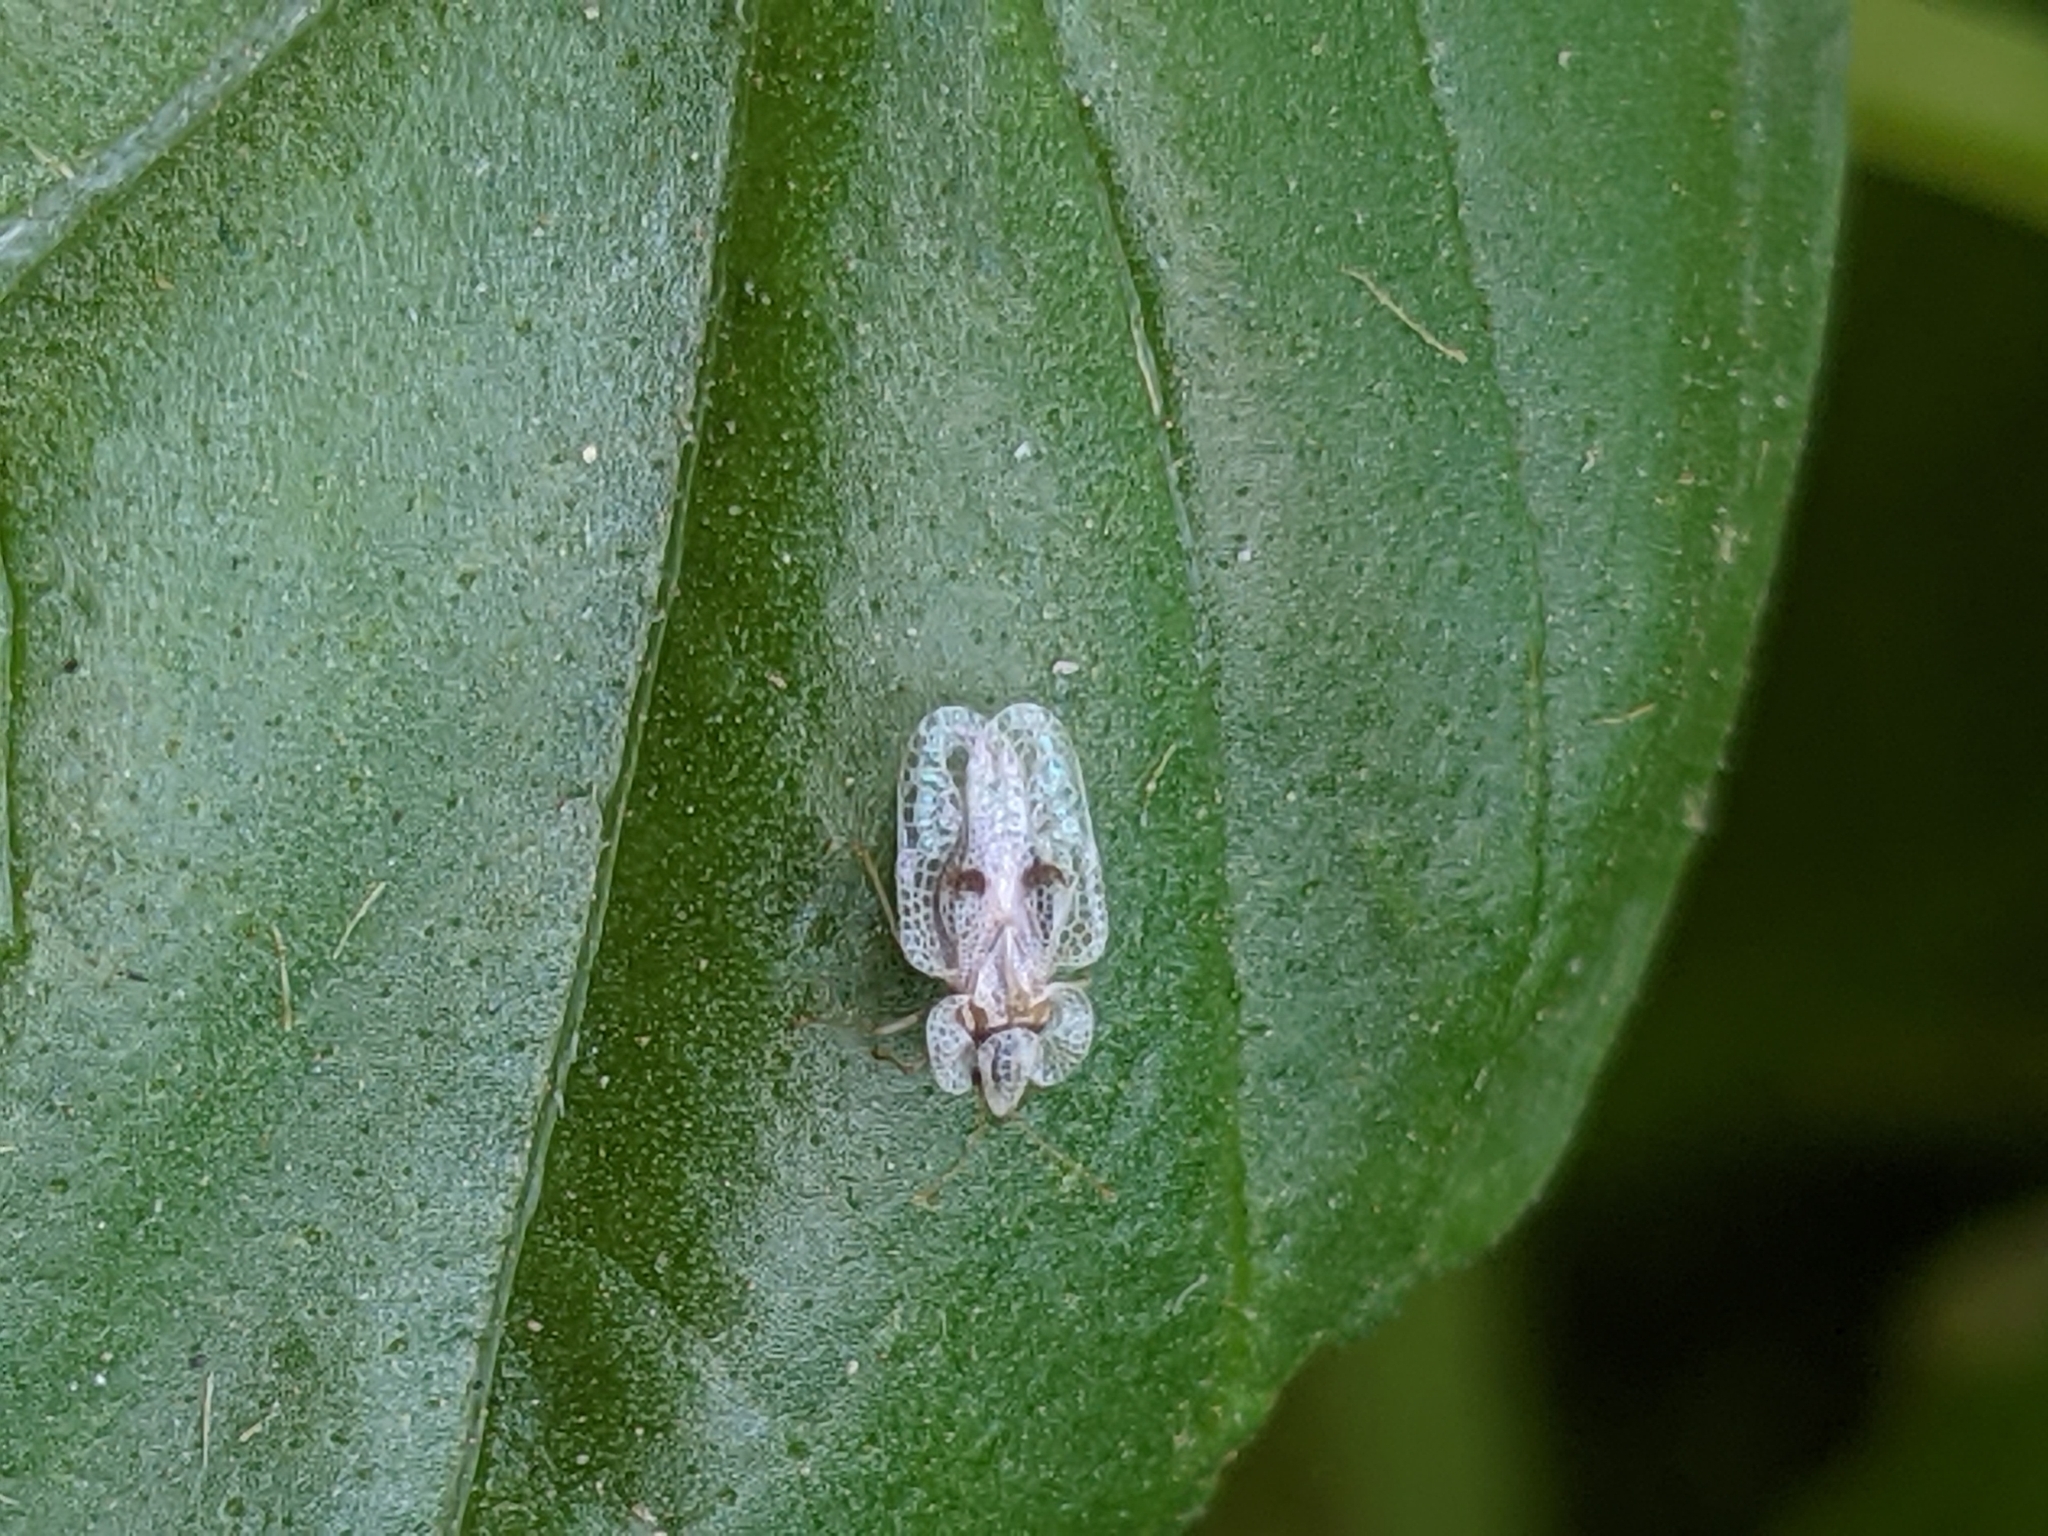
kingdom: Animalia
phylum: Arthropoda
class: Insecta
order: Hemiptera
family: Tingidae
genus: Corythucha
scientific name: Corythucha ciliata
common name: Sycamore lace bug
